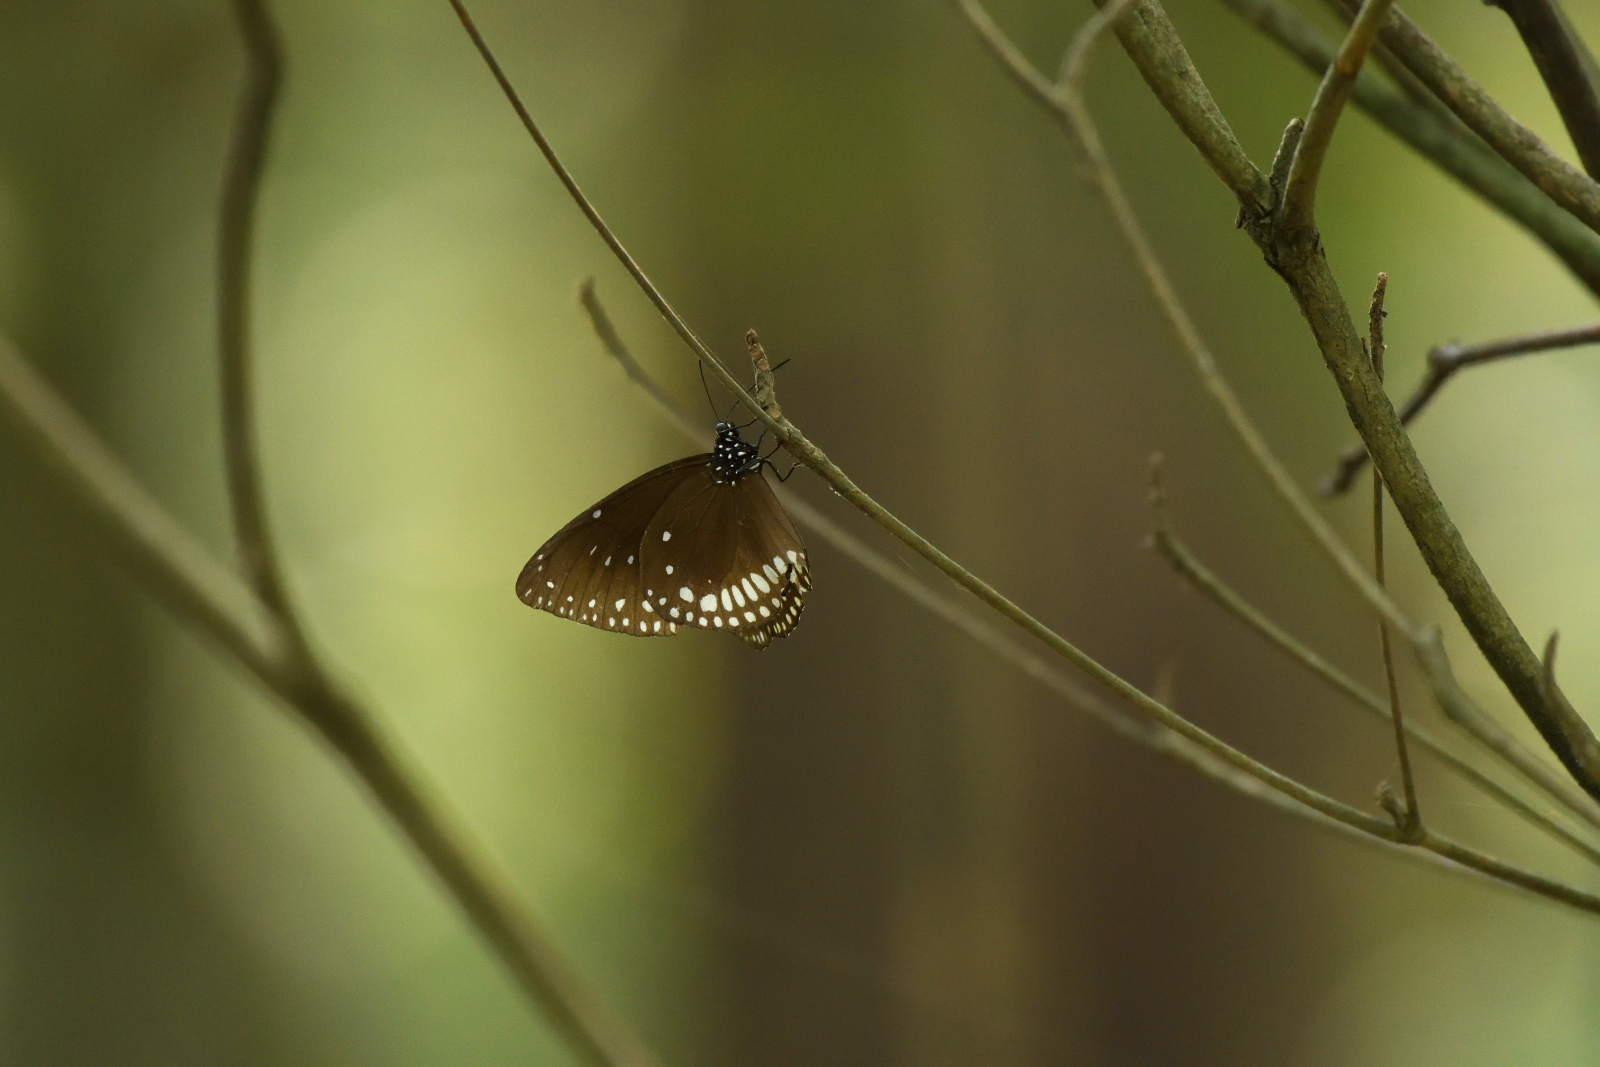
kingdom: Animalia
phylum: Arthropoda
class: Insecta
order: Lepidoptera
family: Nymphalidae
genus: Euploea
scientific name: Euploea klugii
